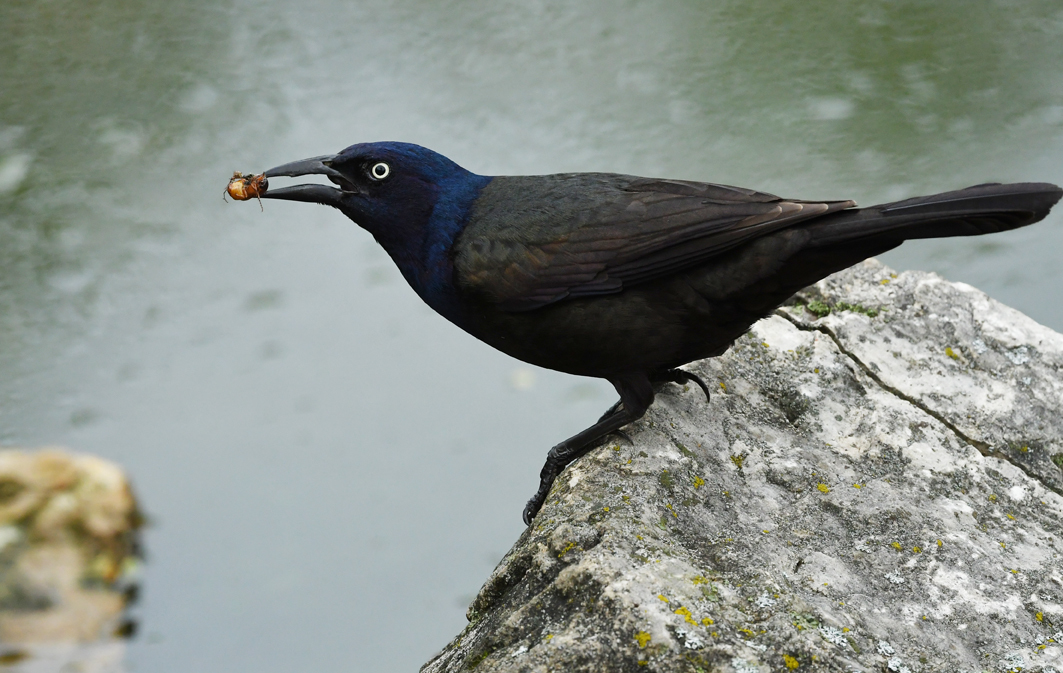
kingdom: Animalia
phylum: Chordata
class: Aves
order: Passeriformes
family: Icteridae
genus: Quiscalus
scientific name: Quiscalus quiscula
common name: Common grackle
